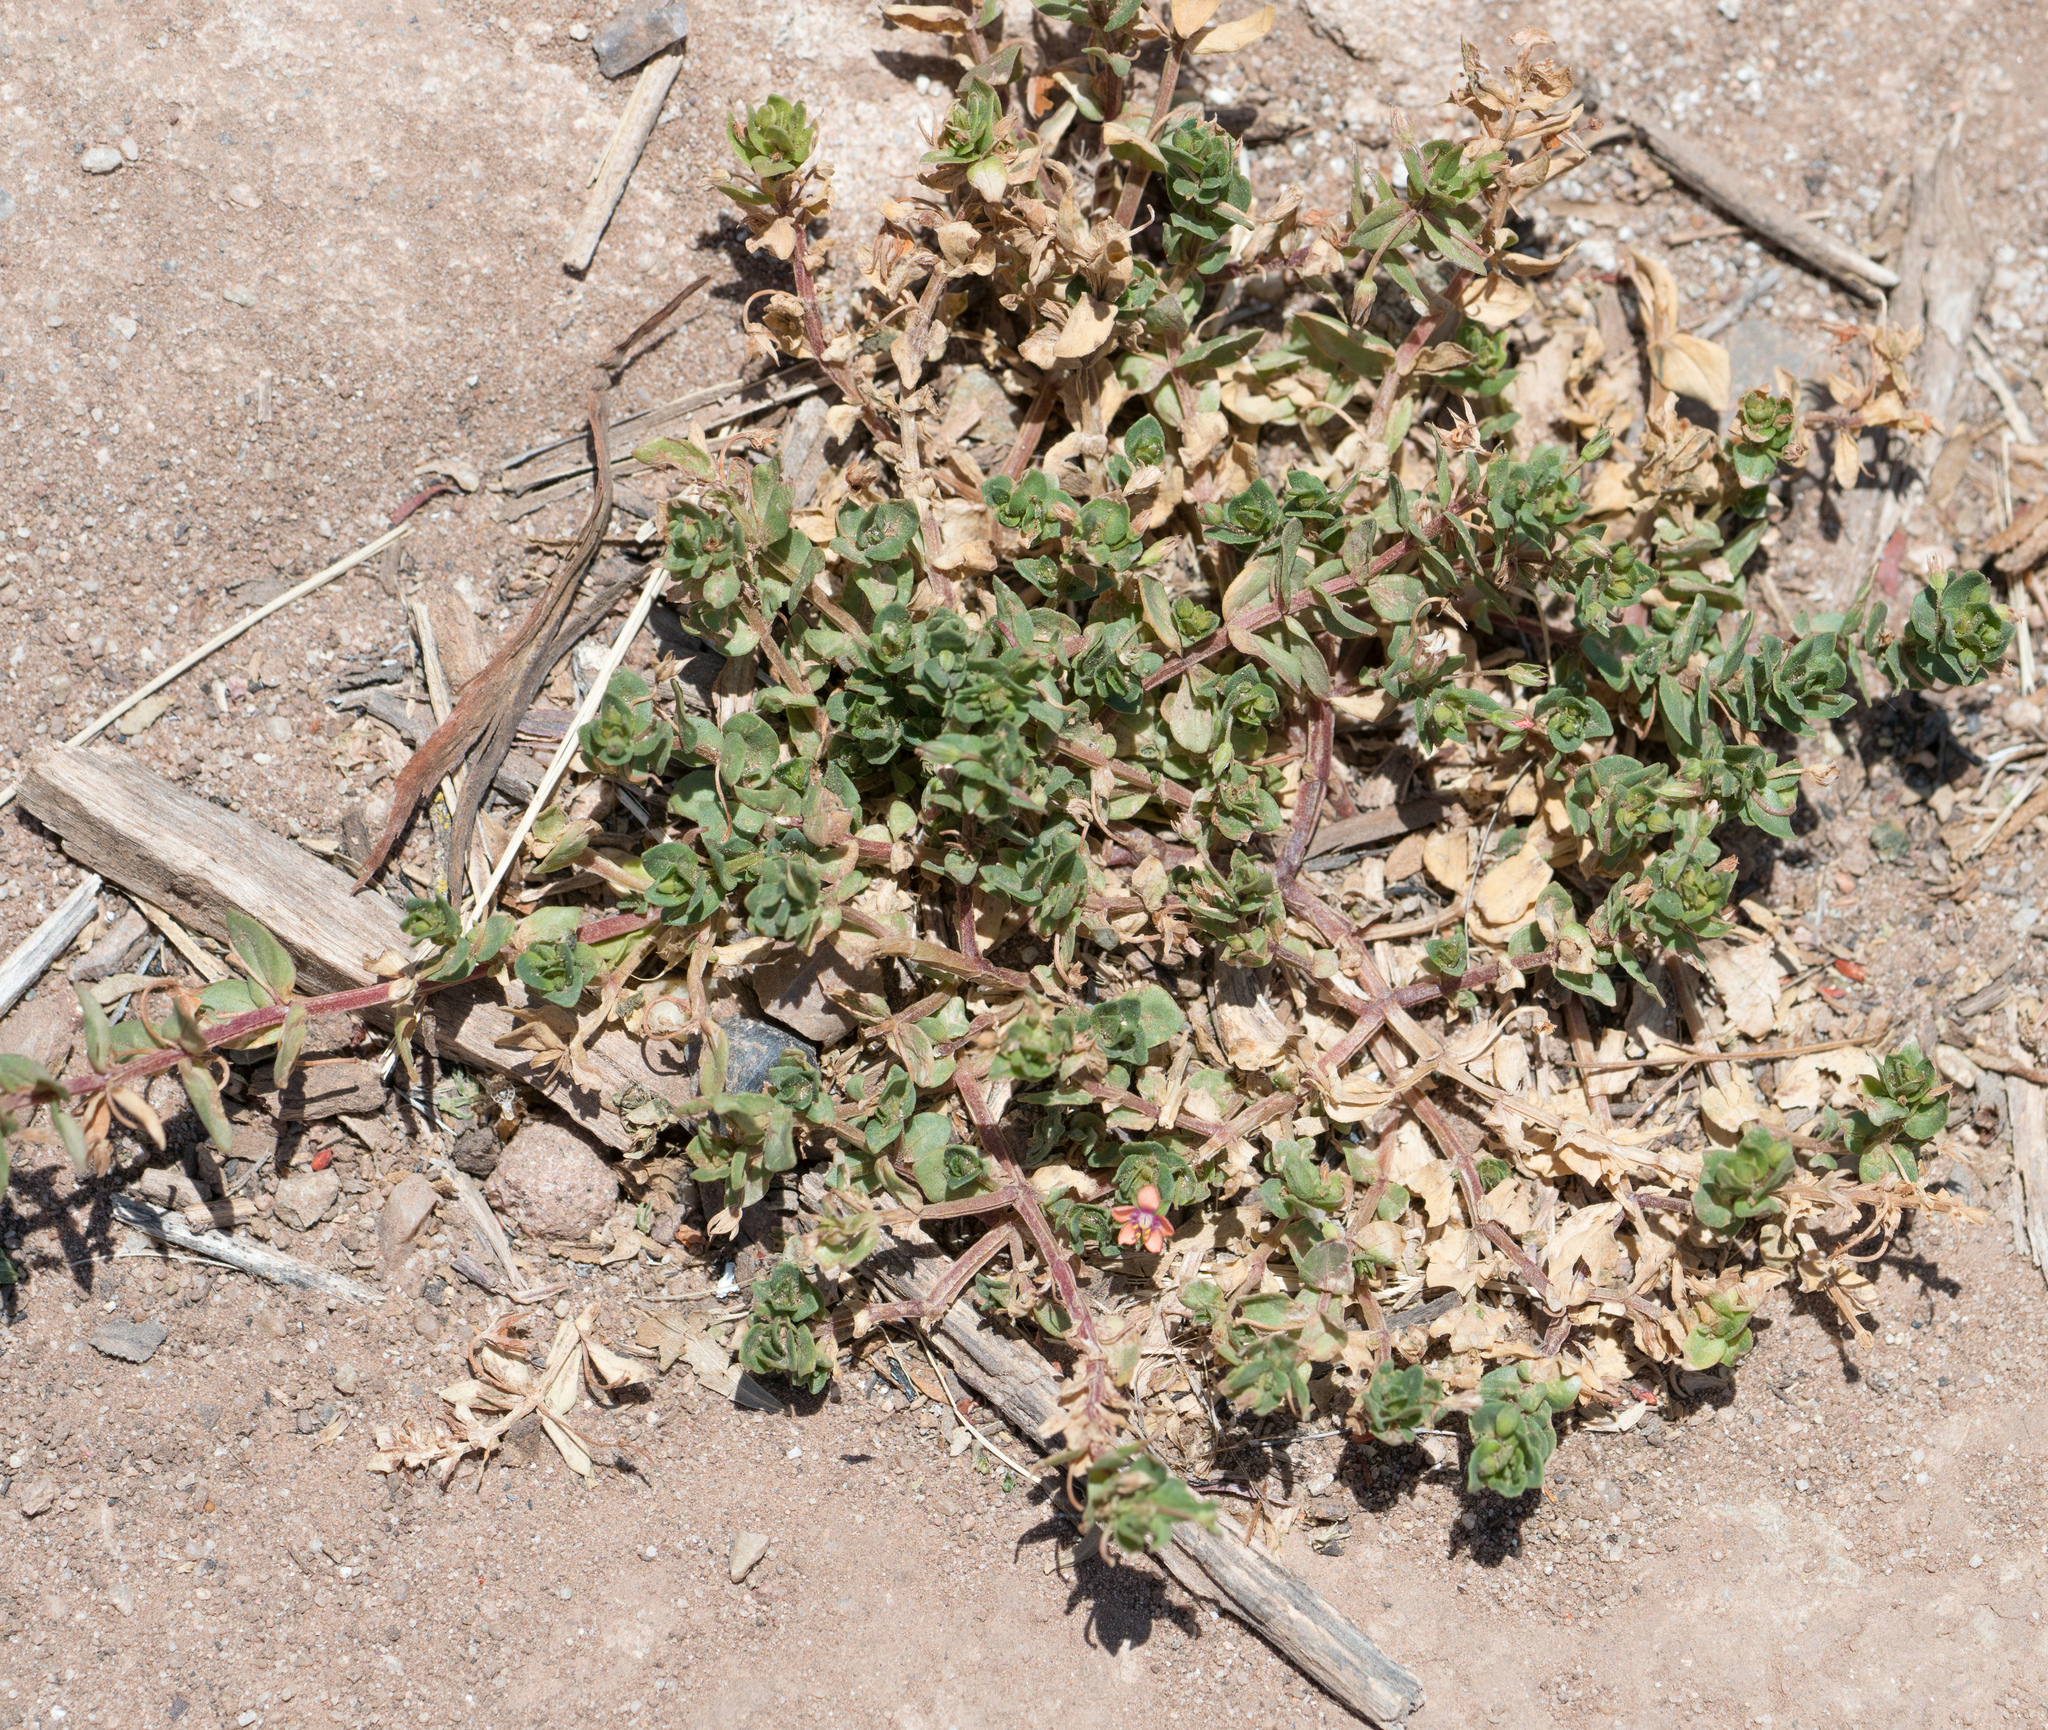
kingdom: Plantae
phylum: Tracheophyta
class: Magnoliopsida
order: Ericales
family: Primulaceae
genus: Lysimachia
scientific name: Lysimachia arvensis
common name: Scarlet pimpernel
